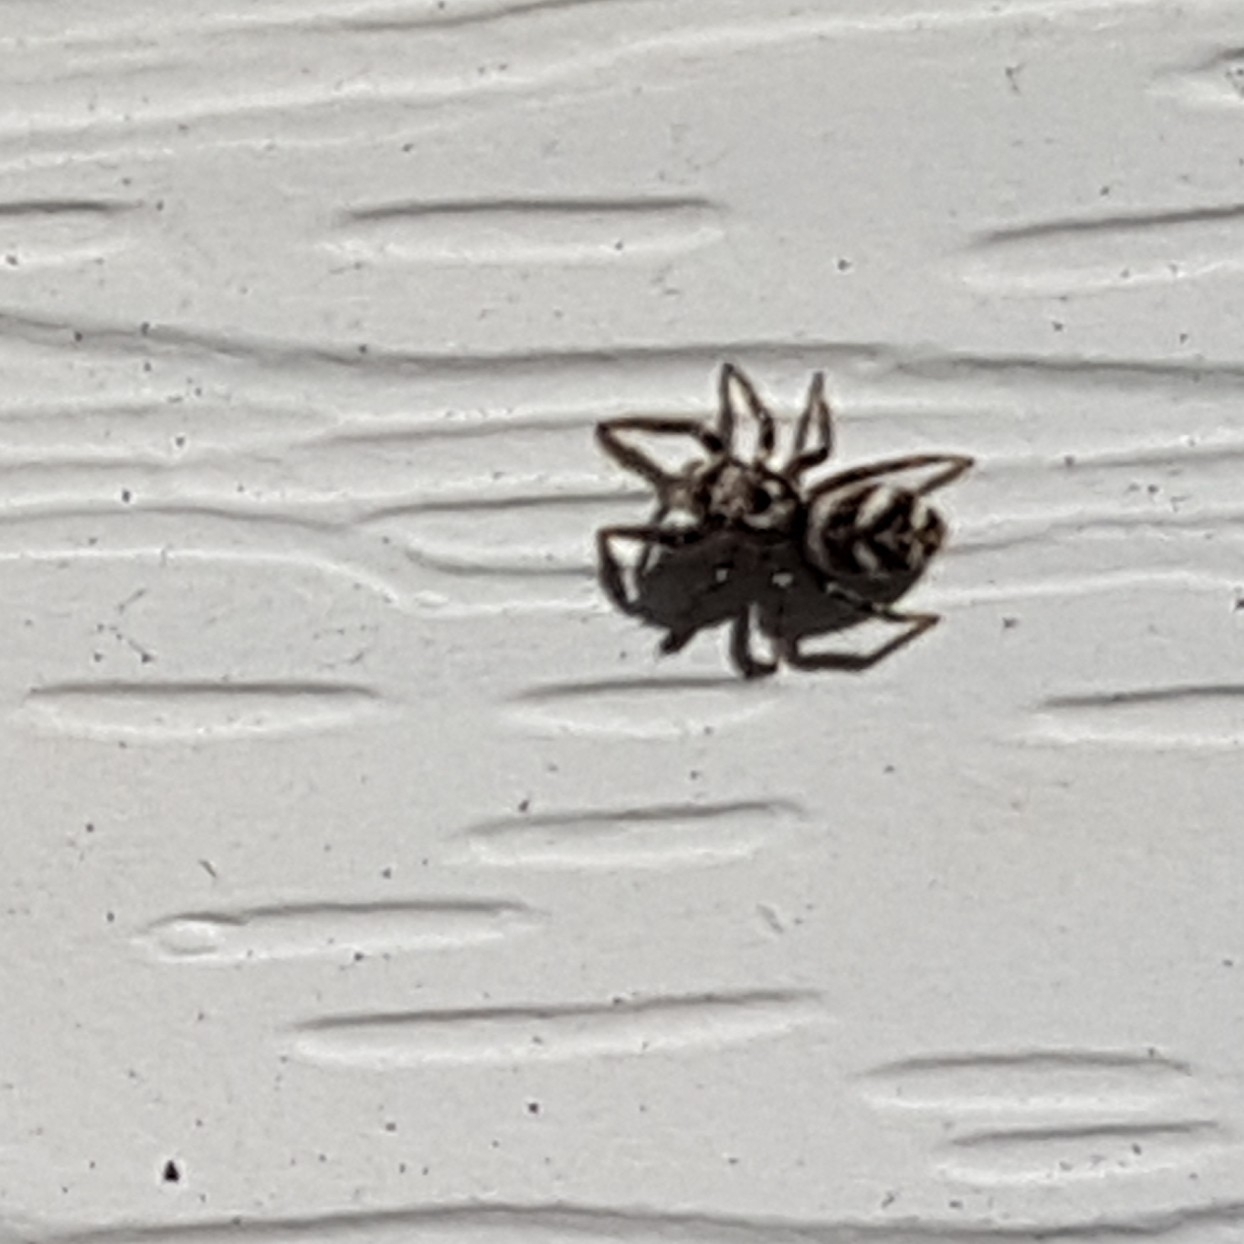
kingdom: Animalia
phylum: Arthropoda
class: Arachnida
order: Araneae
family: Salticidae
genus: Salticus
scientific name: Salticus scenicus
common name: Zebra jumper
